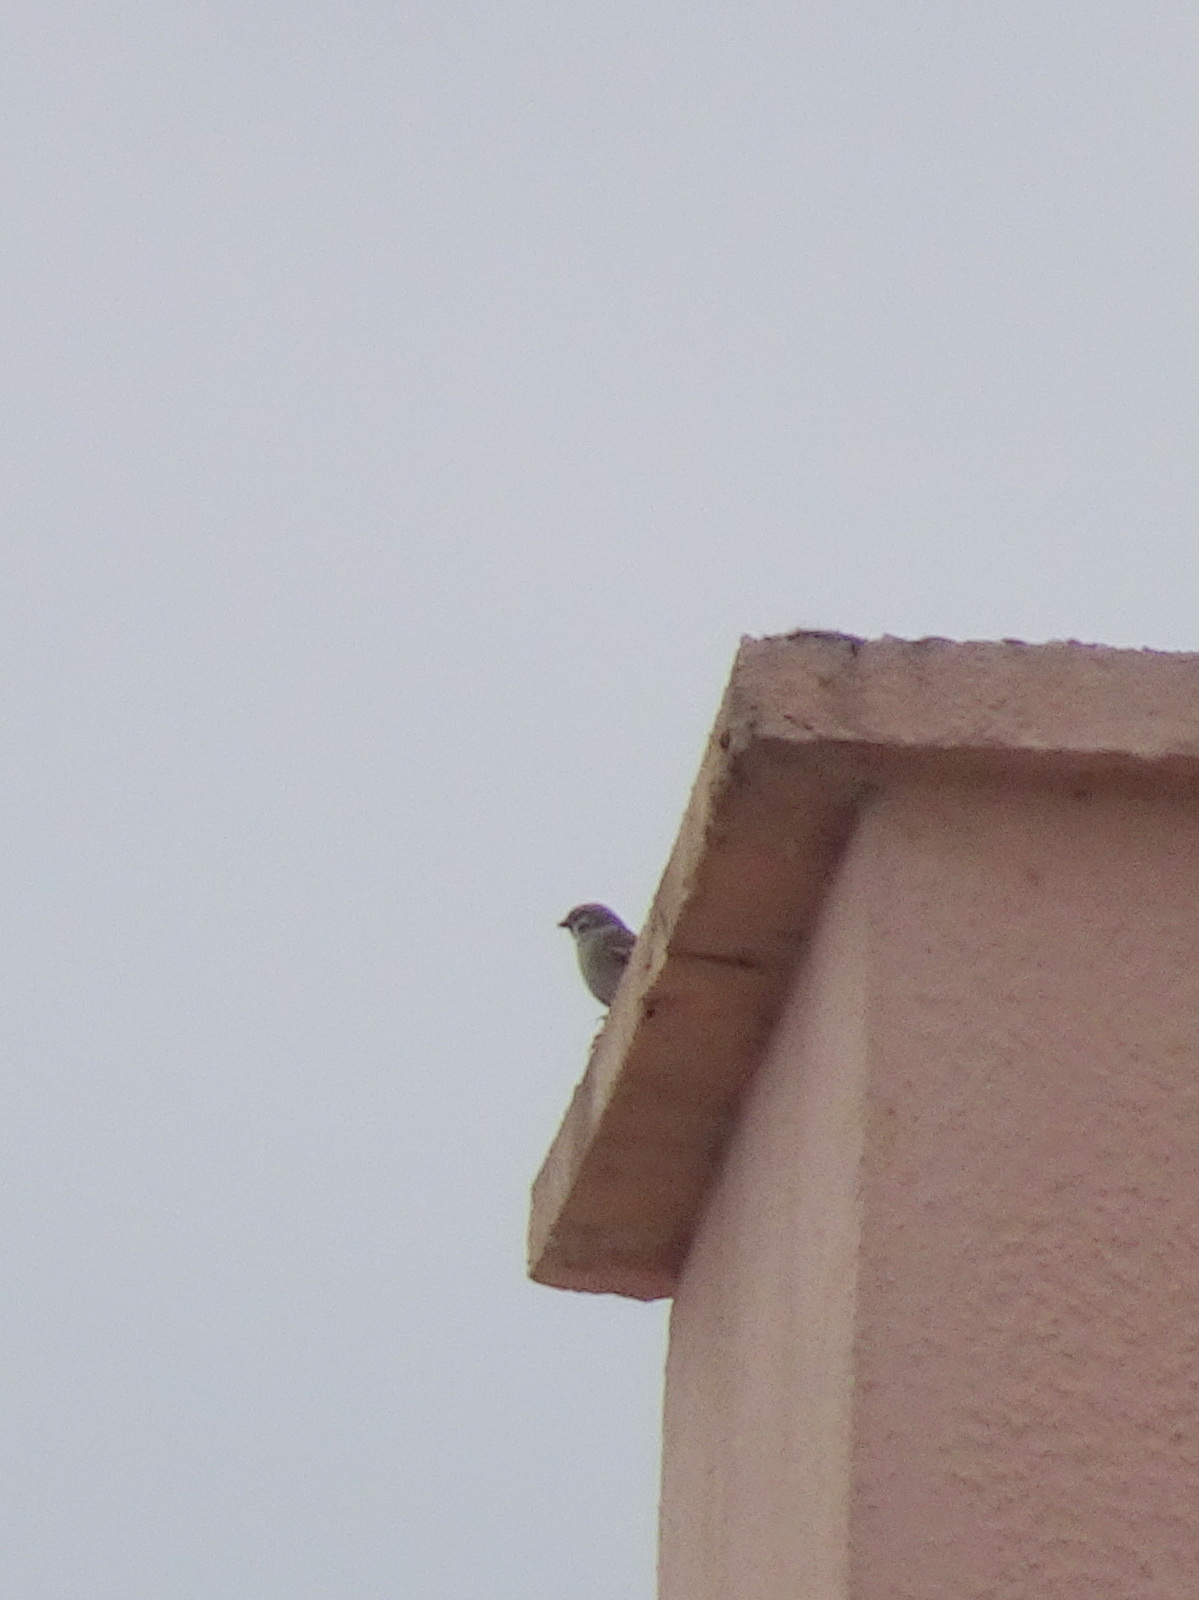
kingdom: Animalia
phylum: Chordata
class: Aves
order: Passeriformes
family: Passeridae
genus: Passer
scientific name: Passer montanus
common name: Eurasian tree sparrow
